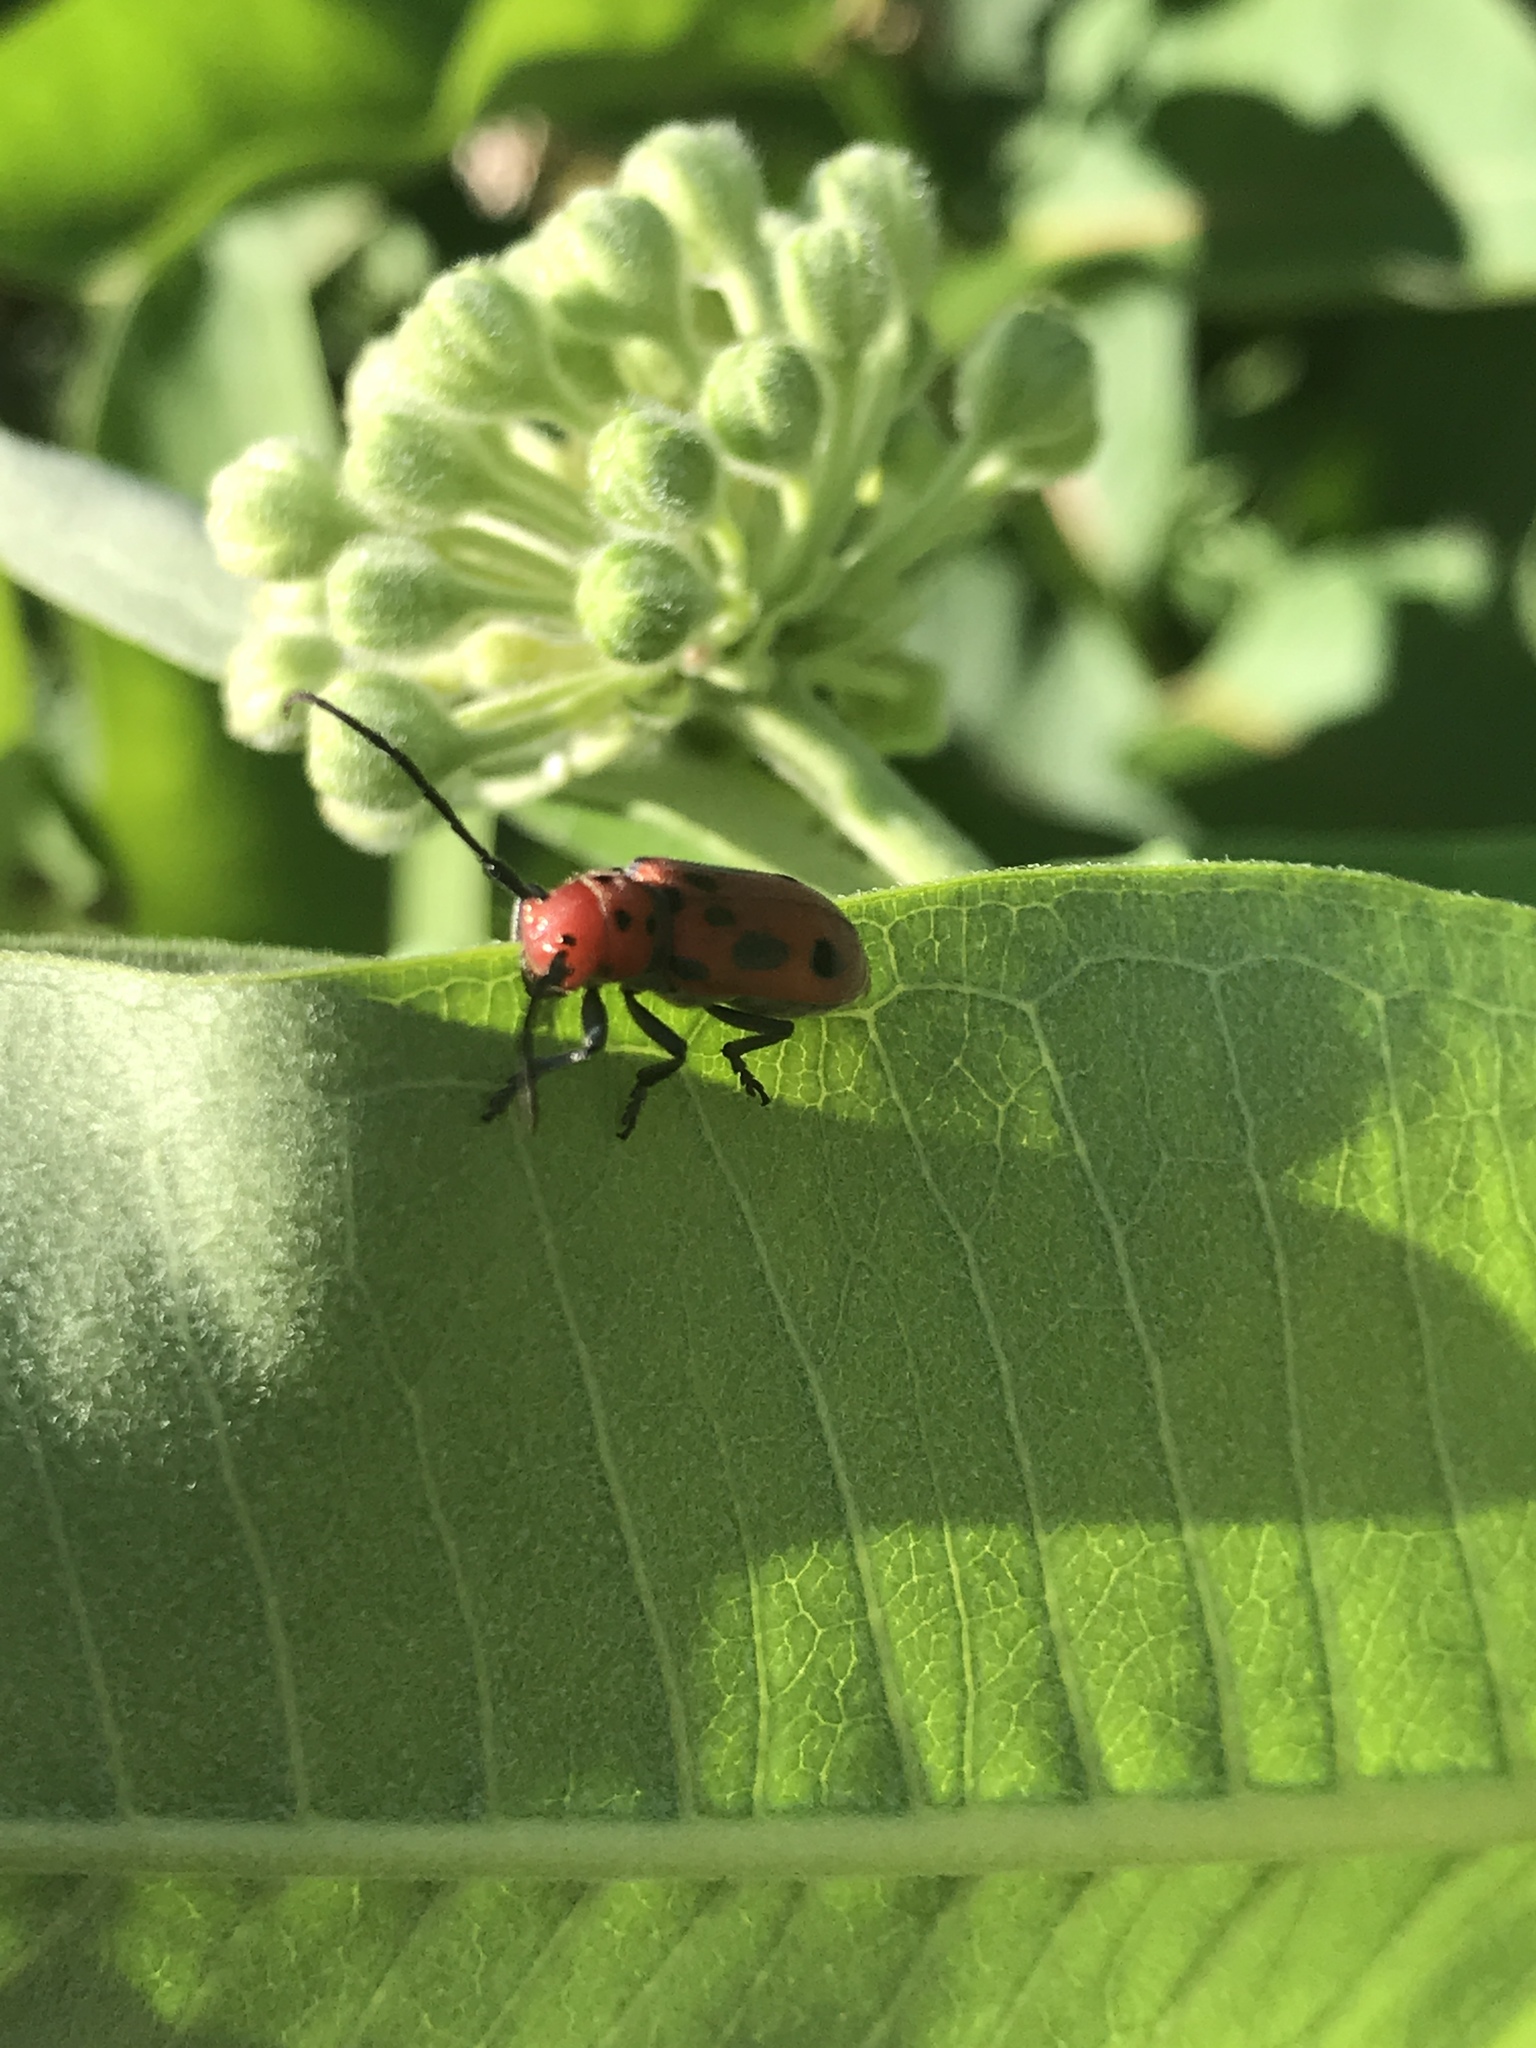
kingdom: Animalia
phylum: Arthropoda
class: Insecta
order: Coleoptera
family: Cerambycidae
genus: Tetraopes
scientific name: Tetraopes tetrophthalmus
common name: Red milkweed beetle
